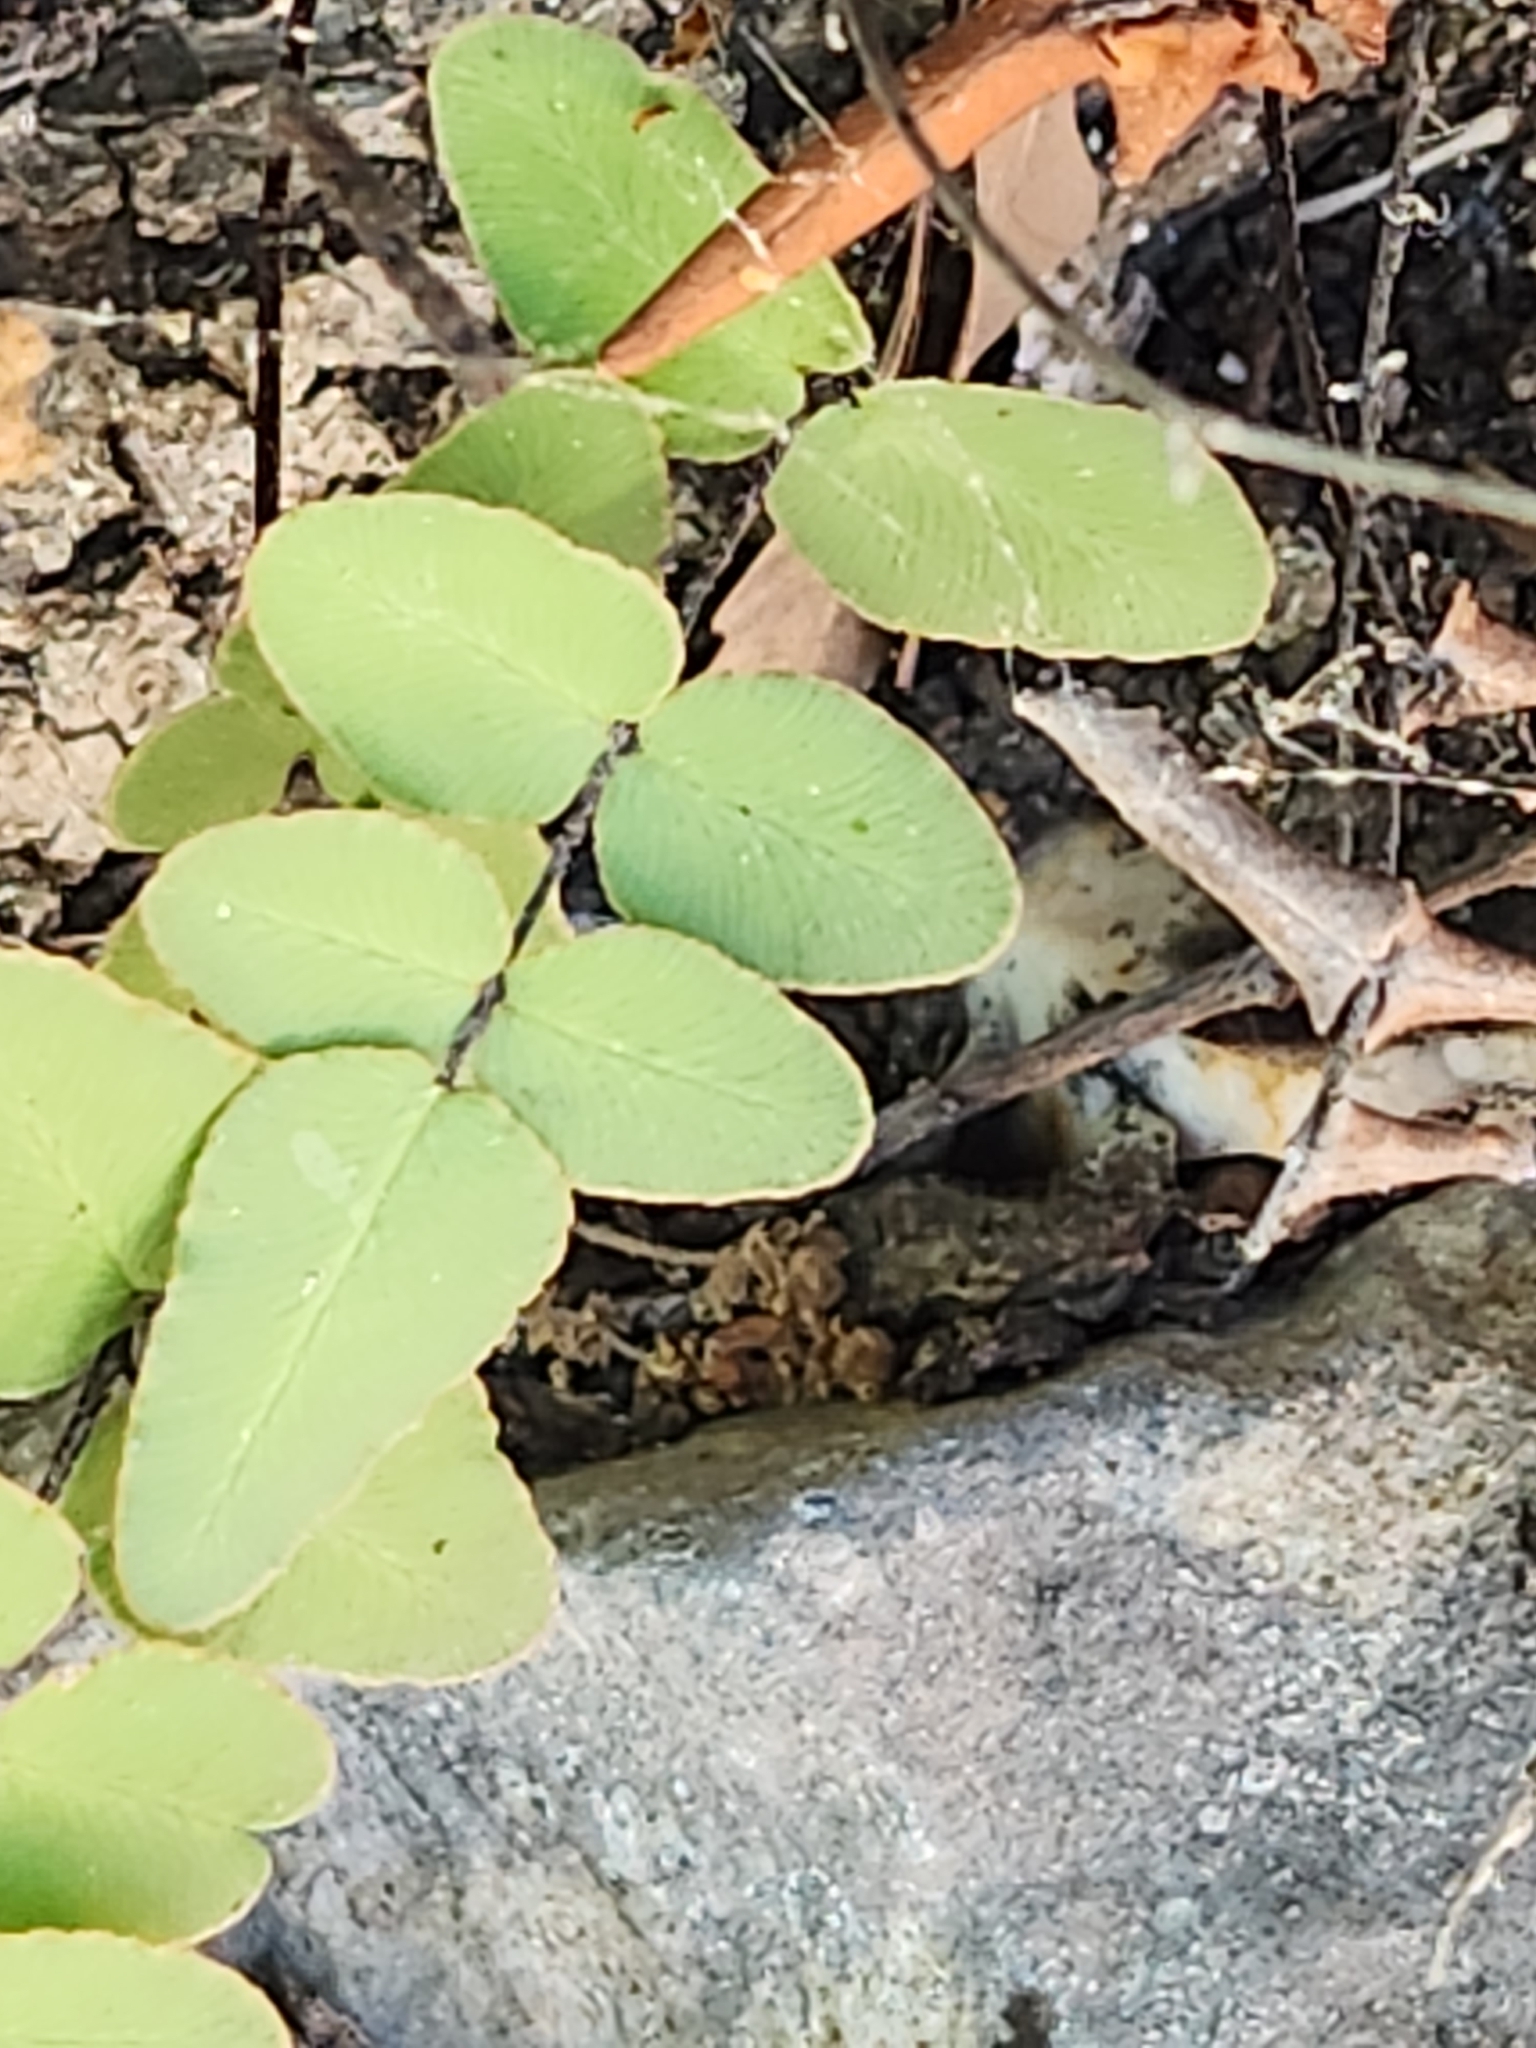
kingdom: Plantae
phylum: Tracheophyta
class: Polypodiopsida
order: Polypodiales
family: Pteridaceae
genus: Pellaea
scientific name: Pellaea atropurpurea
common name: Hairy cliffbrake
